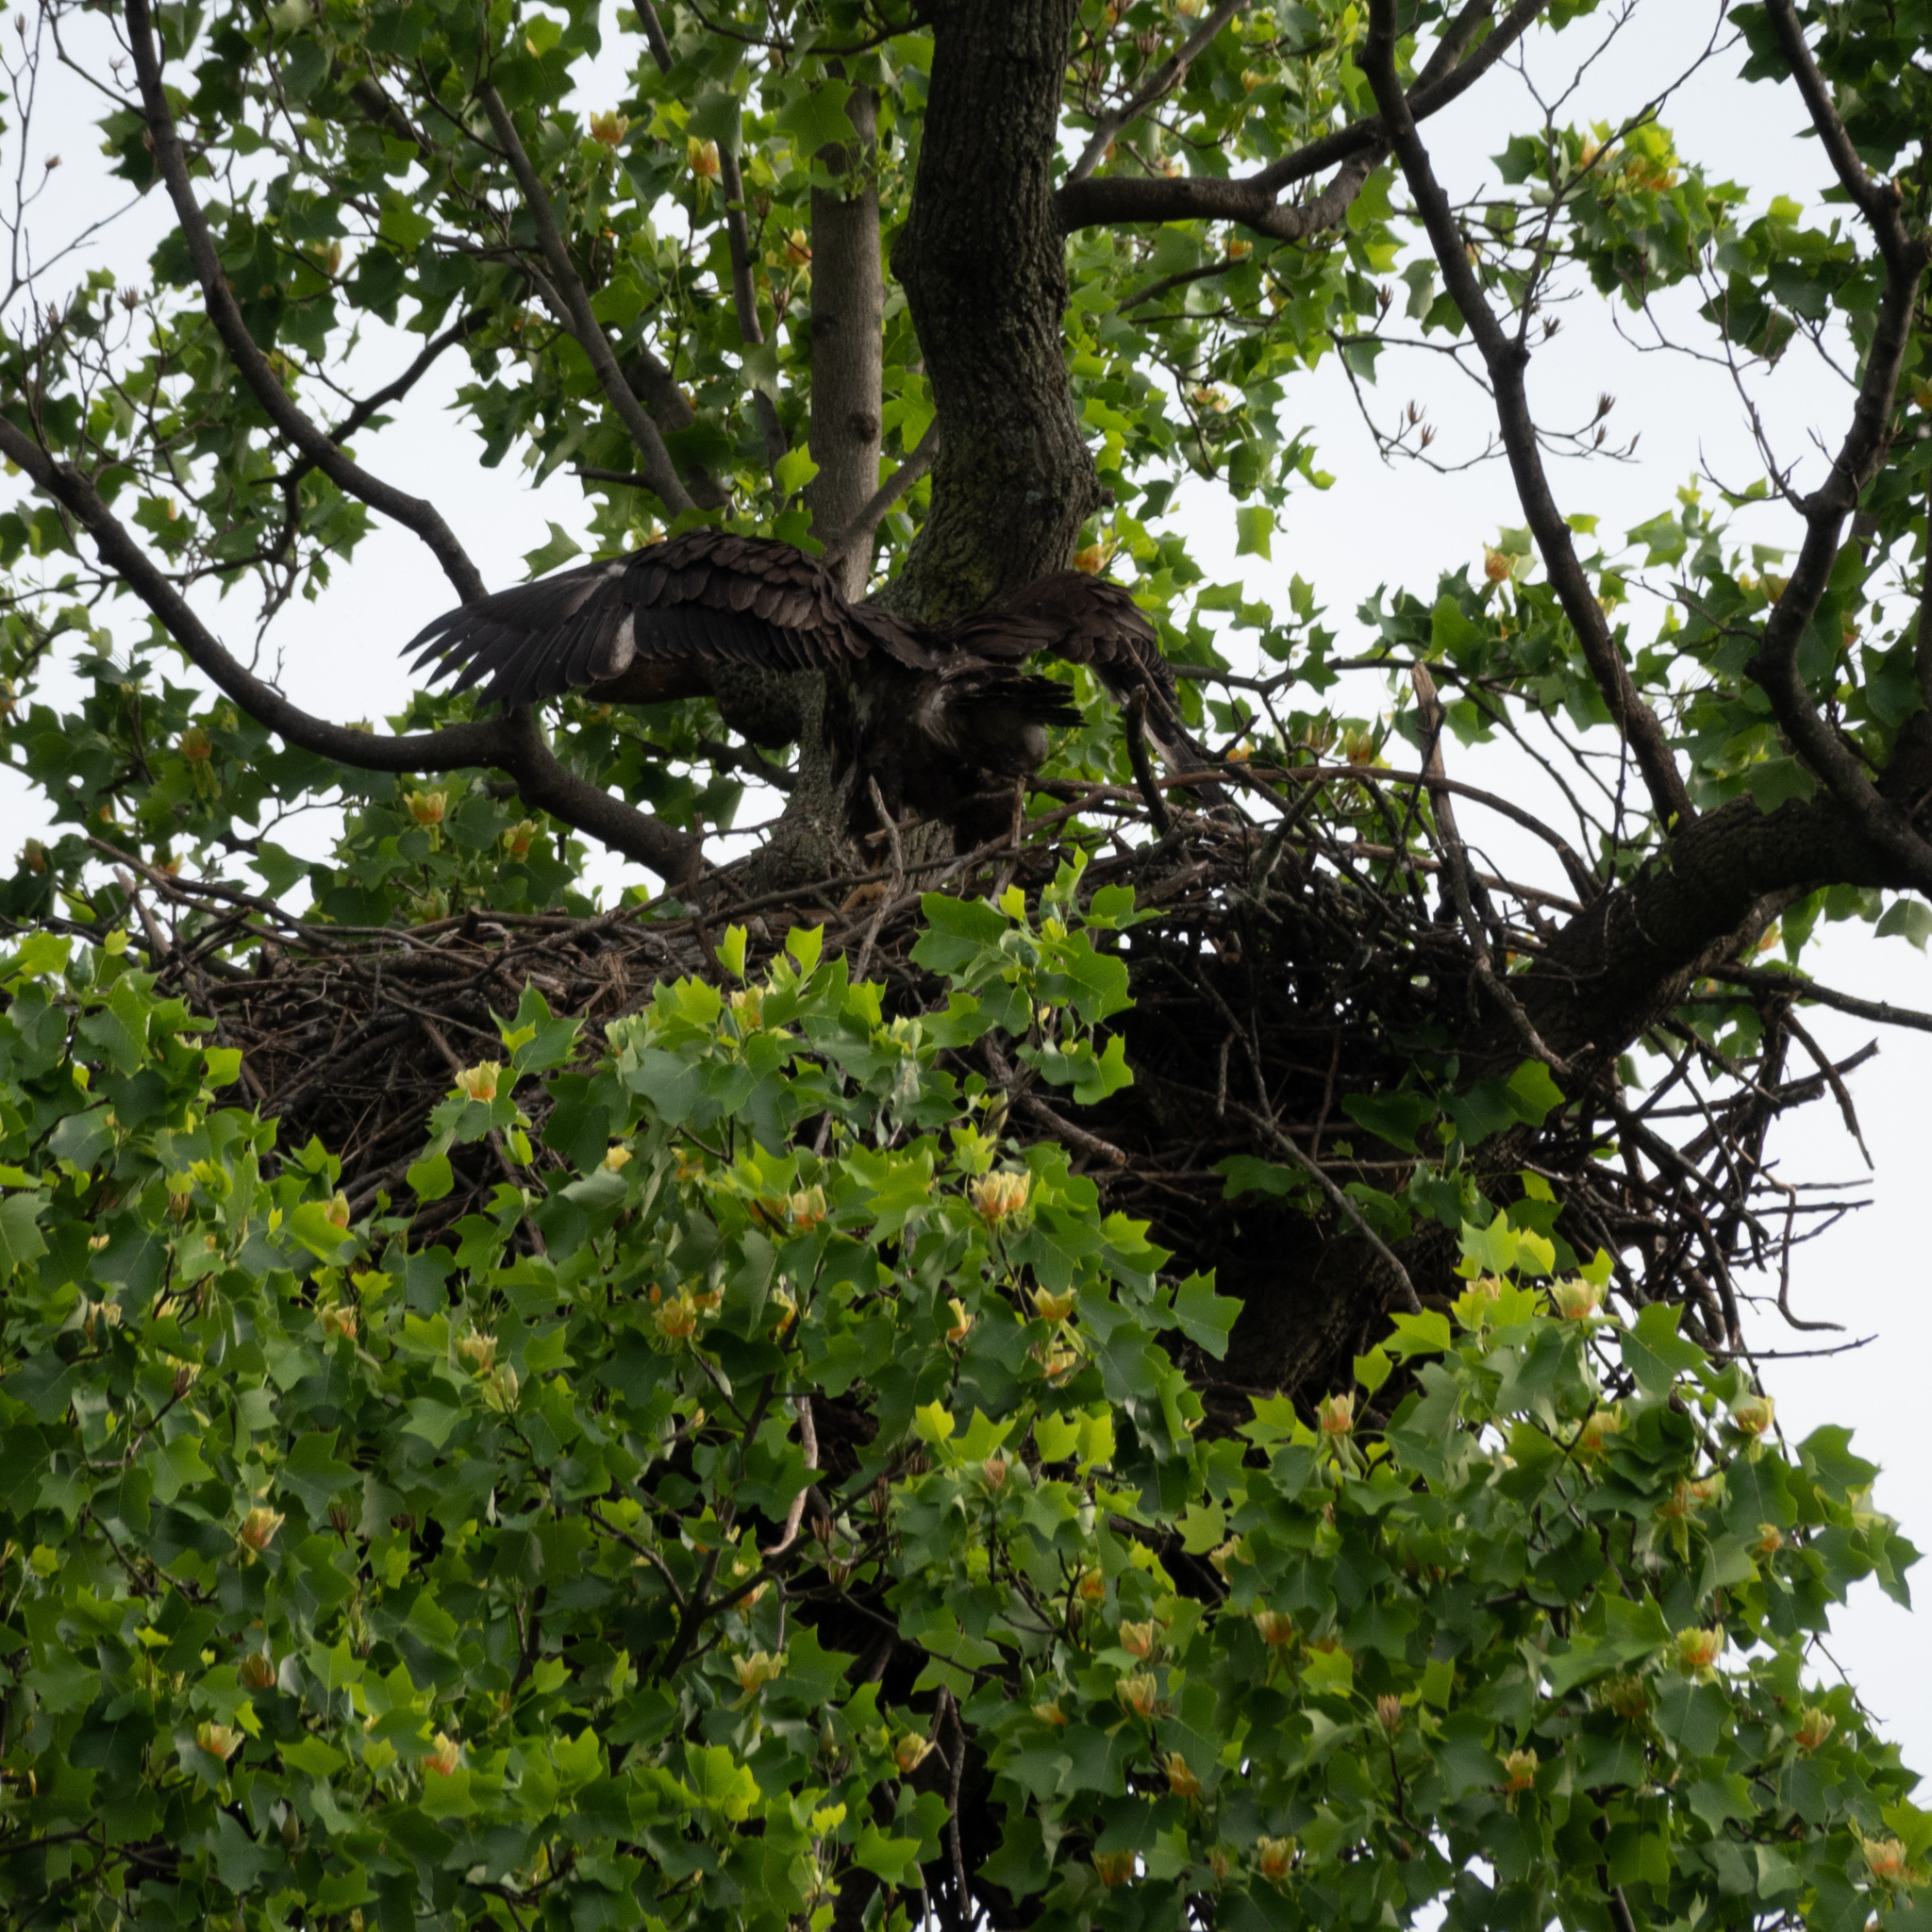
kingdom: Animalia
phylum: Chordata
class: Aves
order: Accipitriformes
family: Accipitridae
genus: Haliaeetus
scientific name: Haliaeetus leucocephalus
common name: Bald eagle
